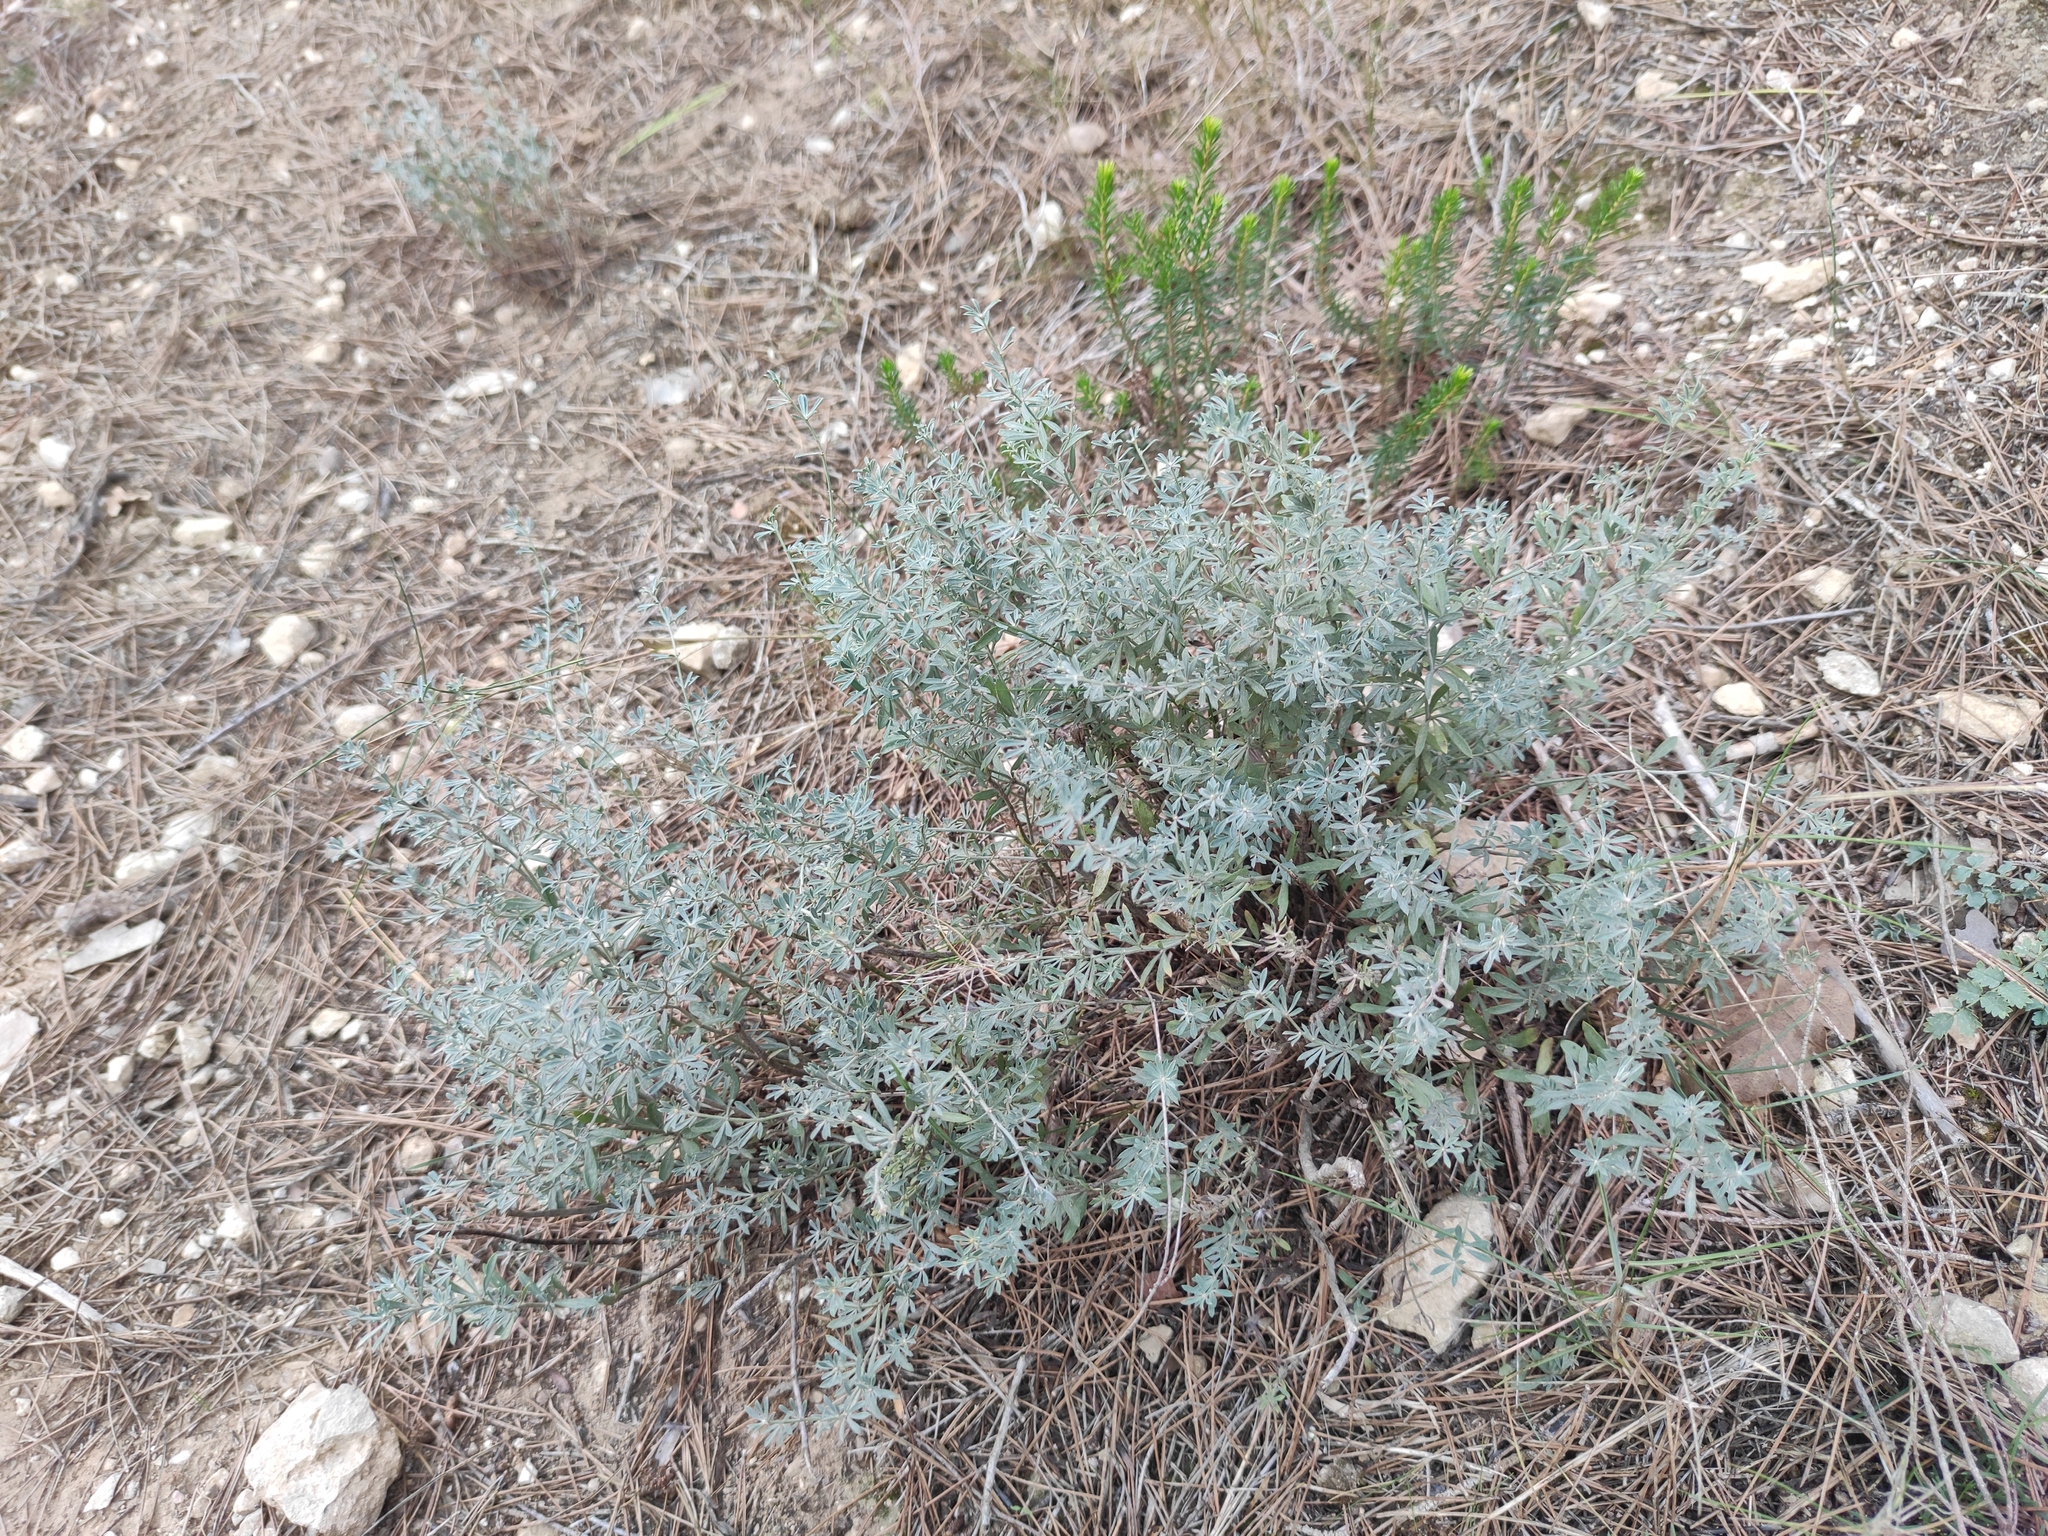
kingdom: Plantae
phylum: Tracheophyta
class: Magnoliopsida
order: Fabales
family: Fabaceae
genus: Lotus
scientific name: Lotus dorycnium
